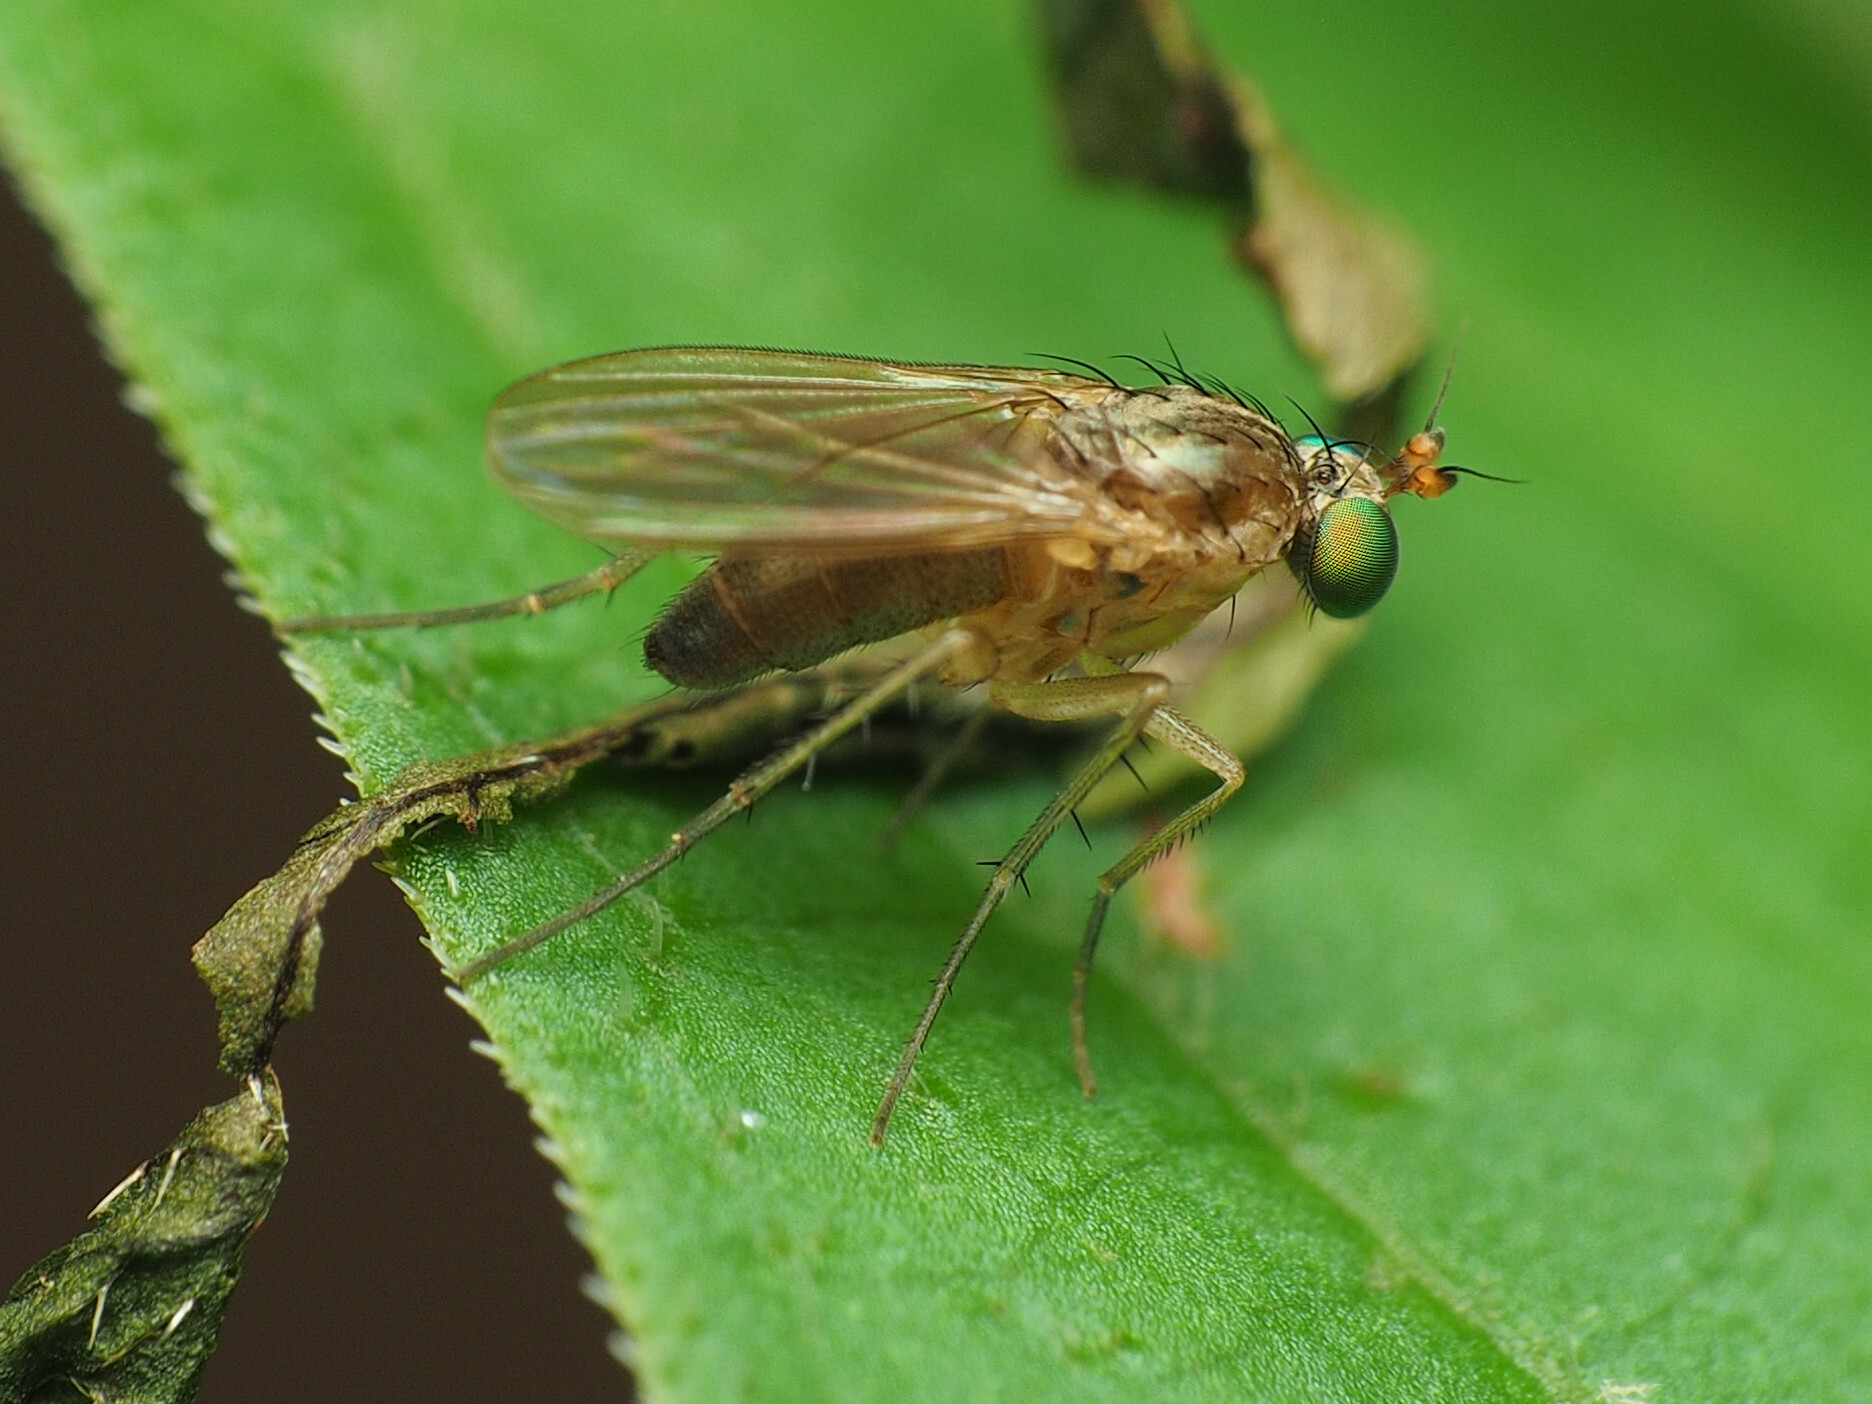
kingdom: Animalia
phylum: Arthropoda
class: Insecta
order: Diptera
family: Dolichopodidae
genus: Gymnopternus
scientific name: Gymnopternus maculiventris
